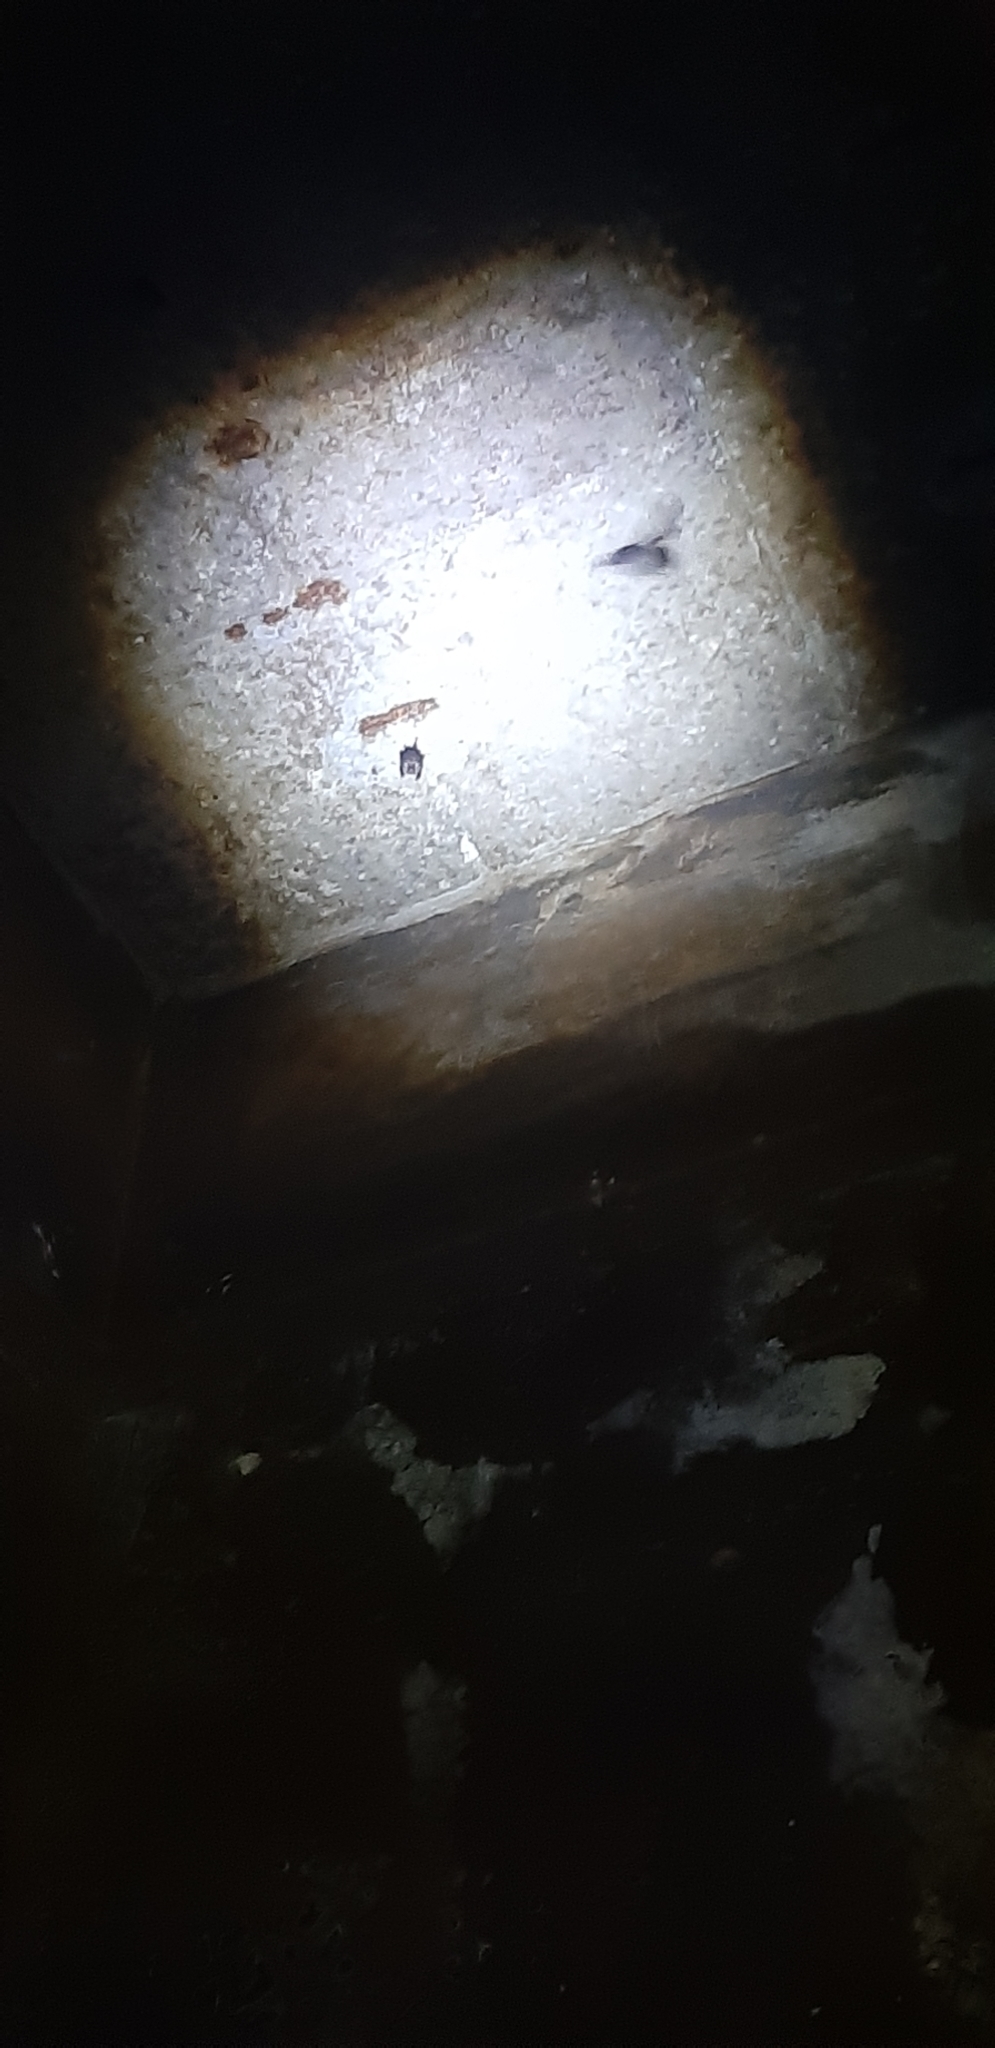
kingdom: Animalia
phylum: Chordata
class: Mammalia
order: Chiroptera
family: Rhinolophidae
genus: Rhinolophus
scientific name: Rhinolophus hipposideros
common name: Lesser horseshoe bat
